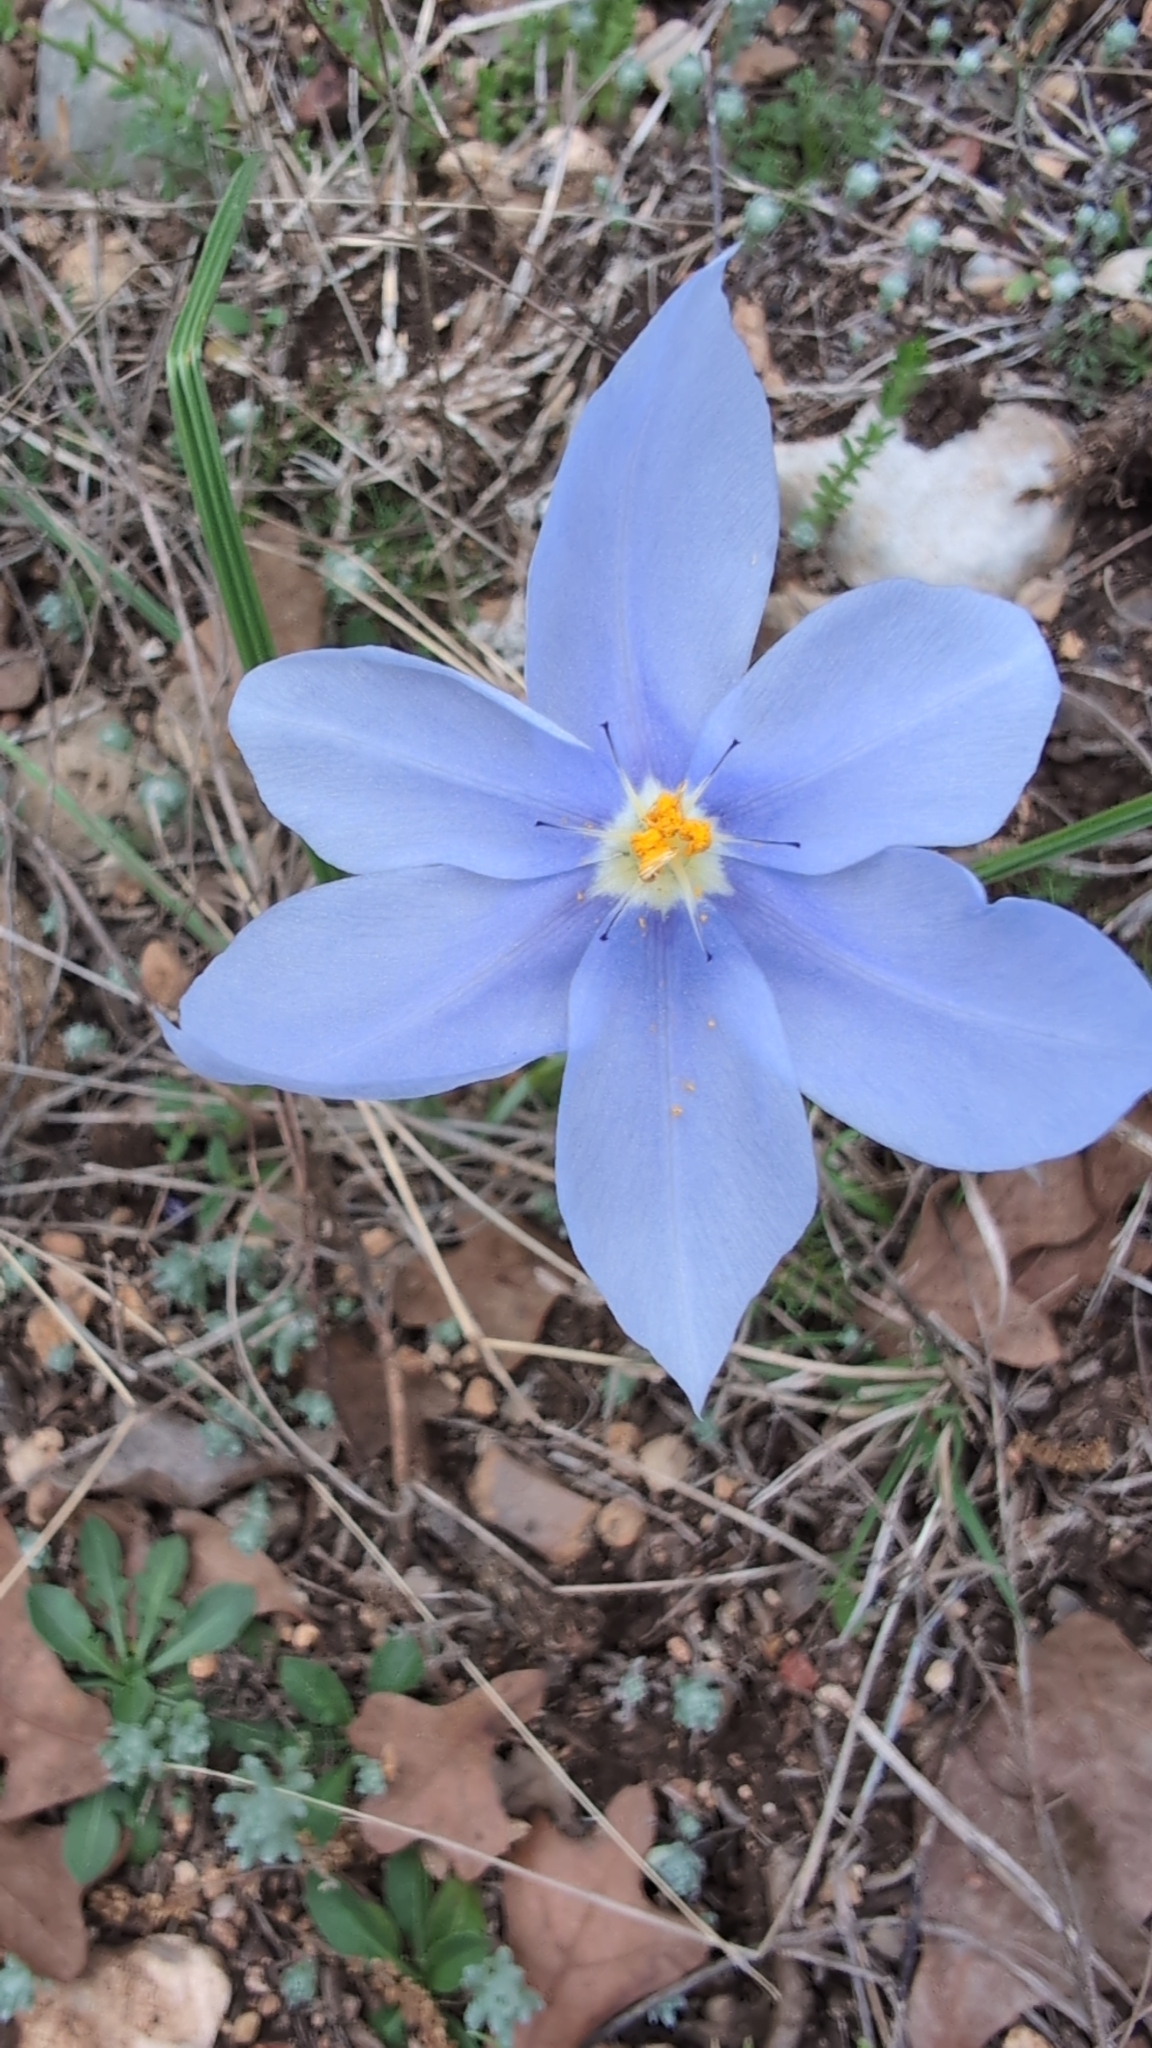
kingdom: Plantae
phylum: Tracheophyta
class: Liliopsida
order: Asparagales
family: Iridaceae
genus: Nemastylis
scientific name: Nemastylis geminiflora
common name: Prairie celestial
